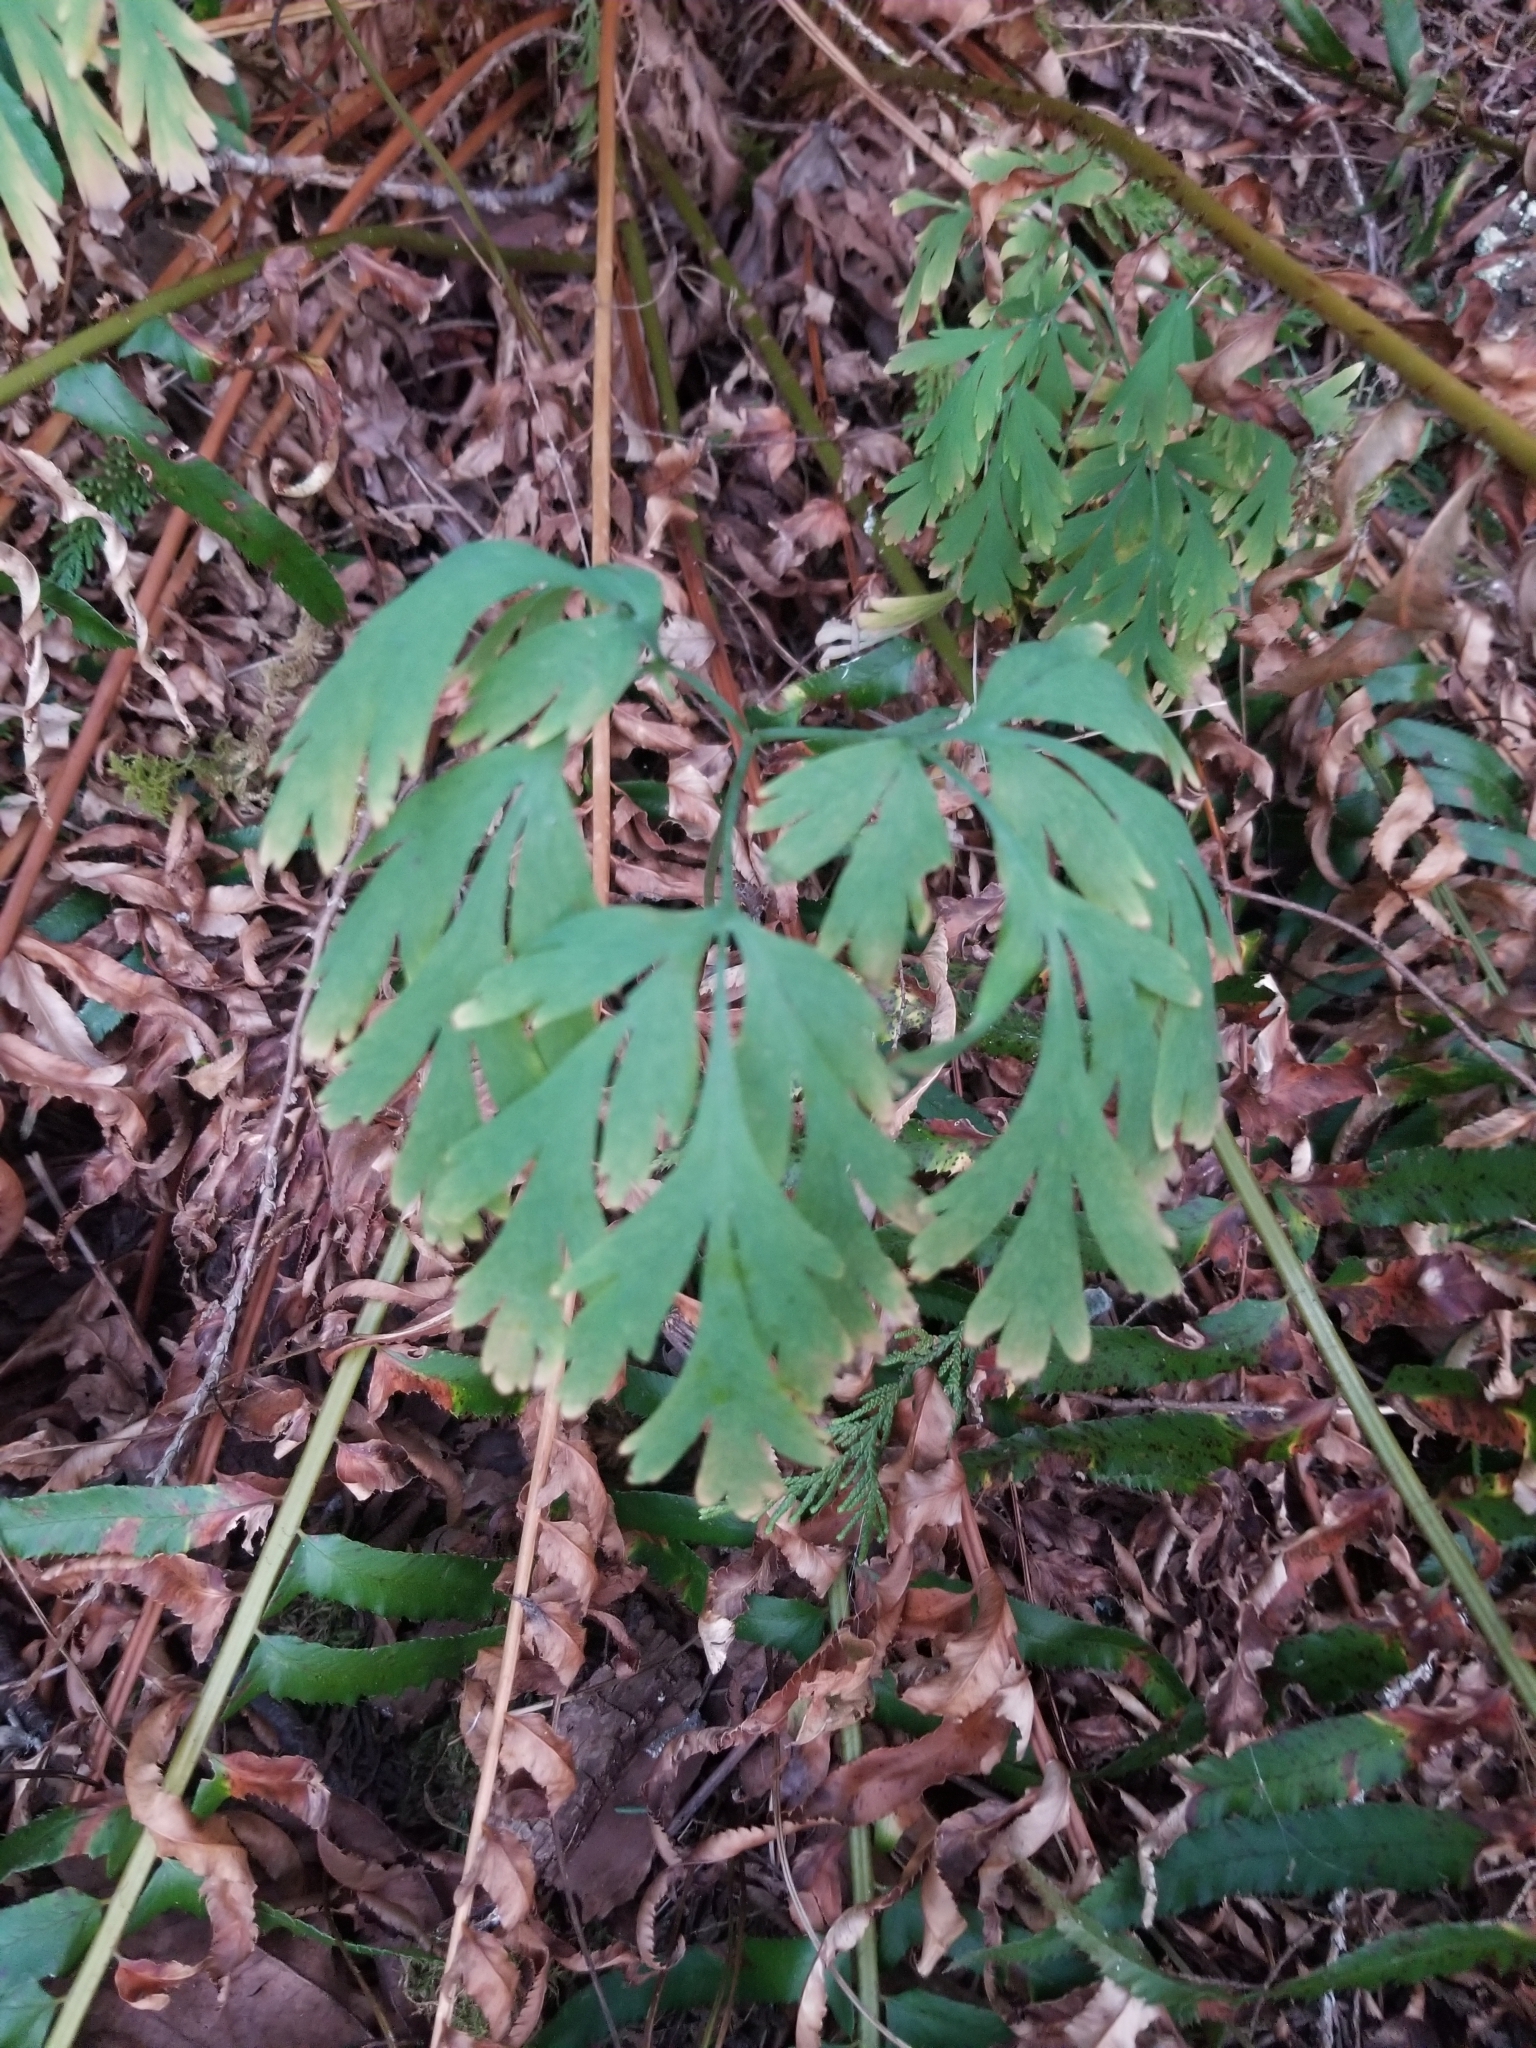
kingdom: Plantae
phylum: Tracheophyta
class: Magnoliopsida
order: Ranunculales
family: Papaveraceae
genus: Dicentra
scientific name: Dicentra formosa
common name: Bleeding-heart
